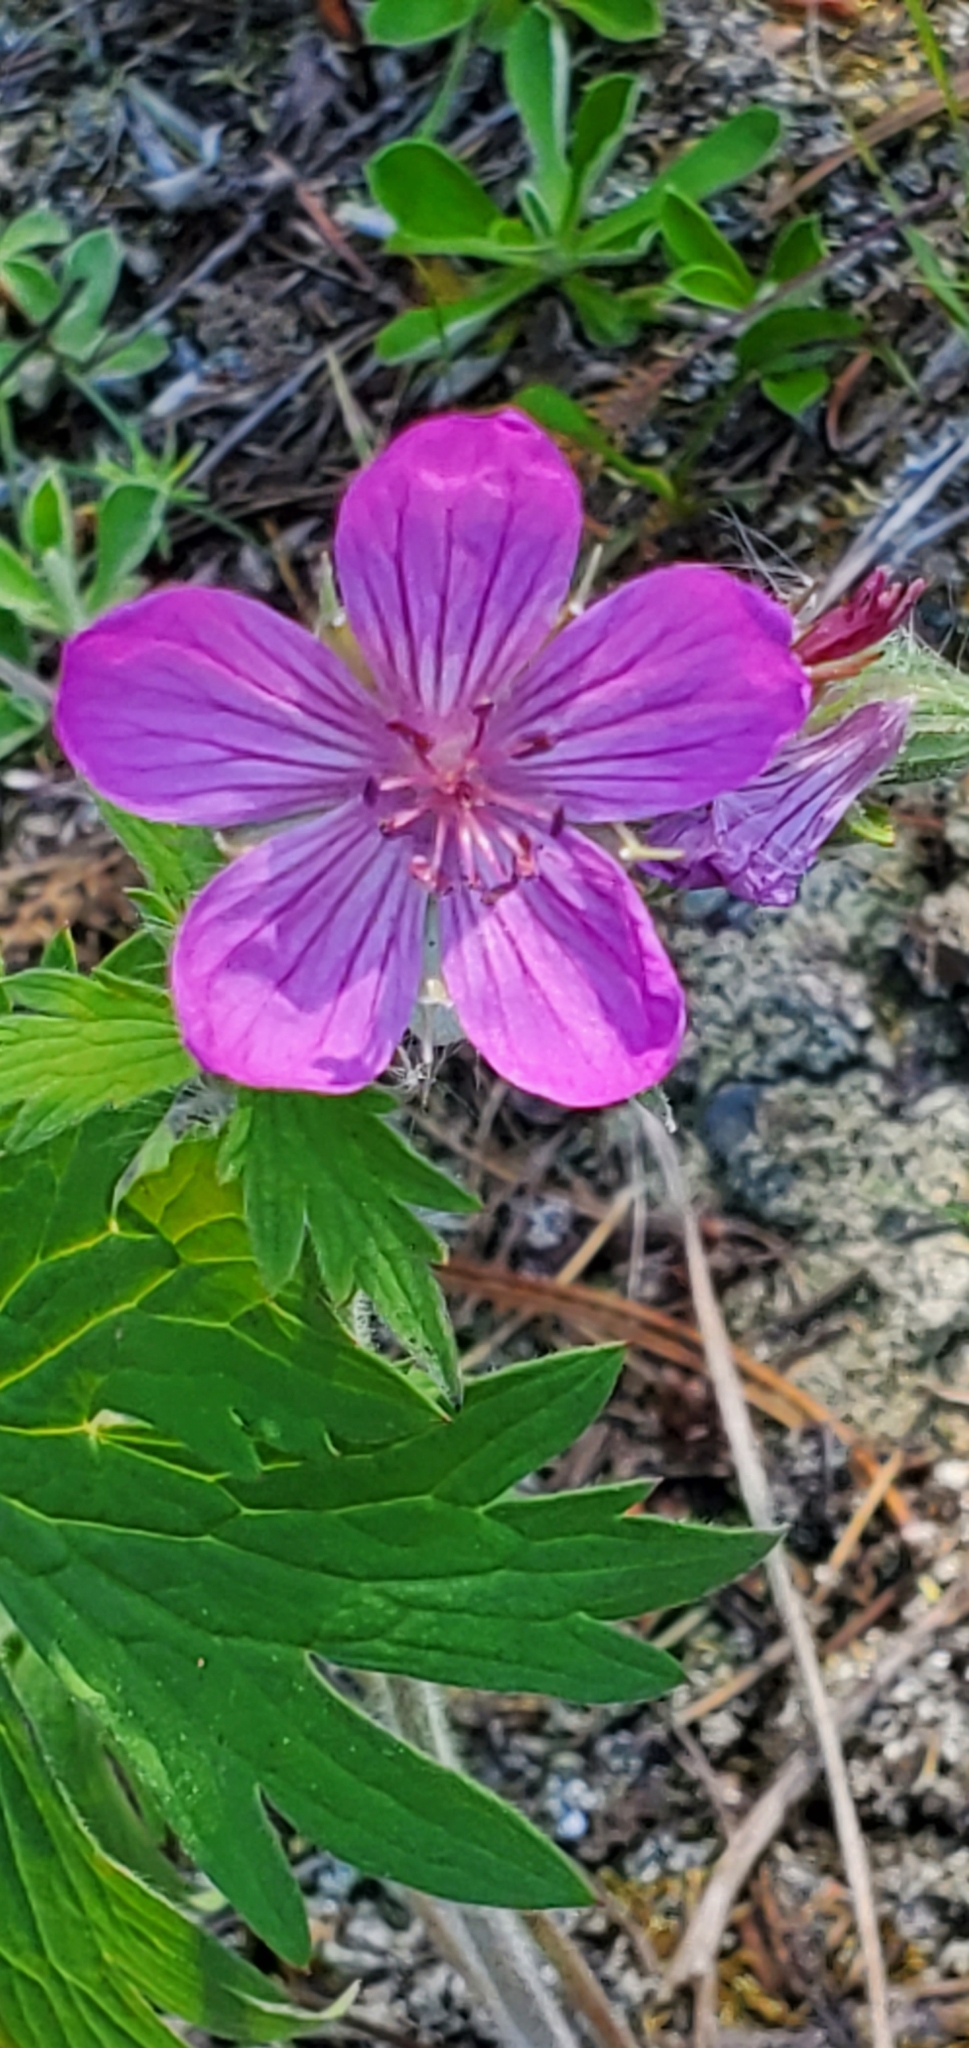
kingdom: Plantae
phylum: Tracheophyta
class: Magnoliopsida
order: Geraniales
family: Geraniaceae
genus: Geranium
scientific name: Geranium viscosissimum
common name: Purple geranium
